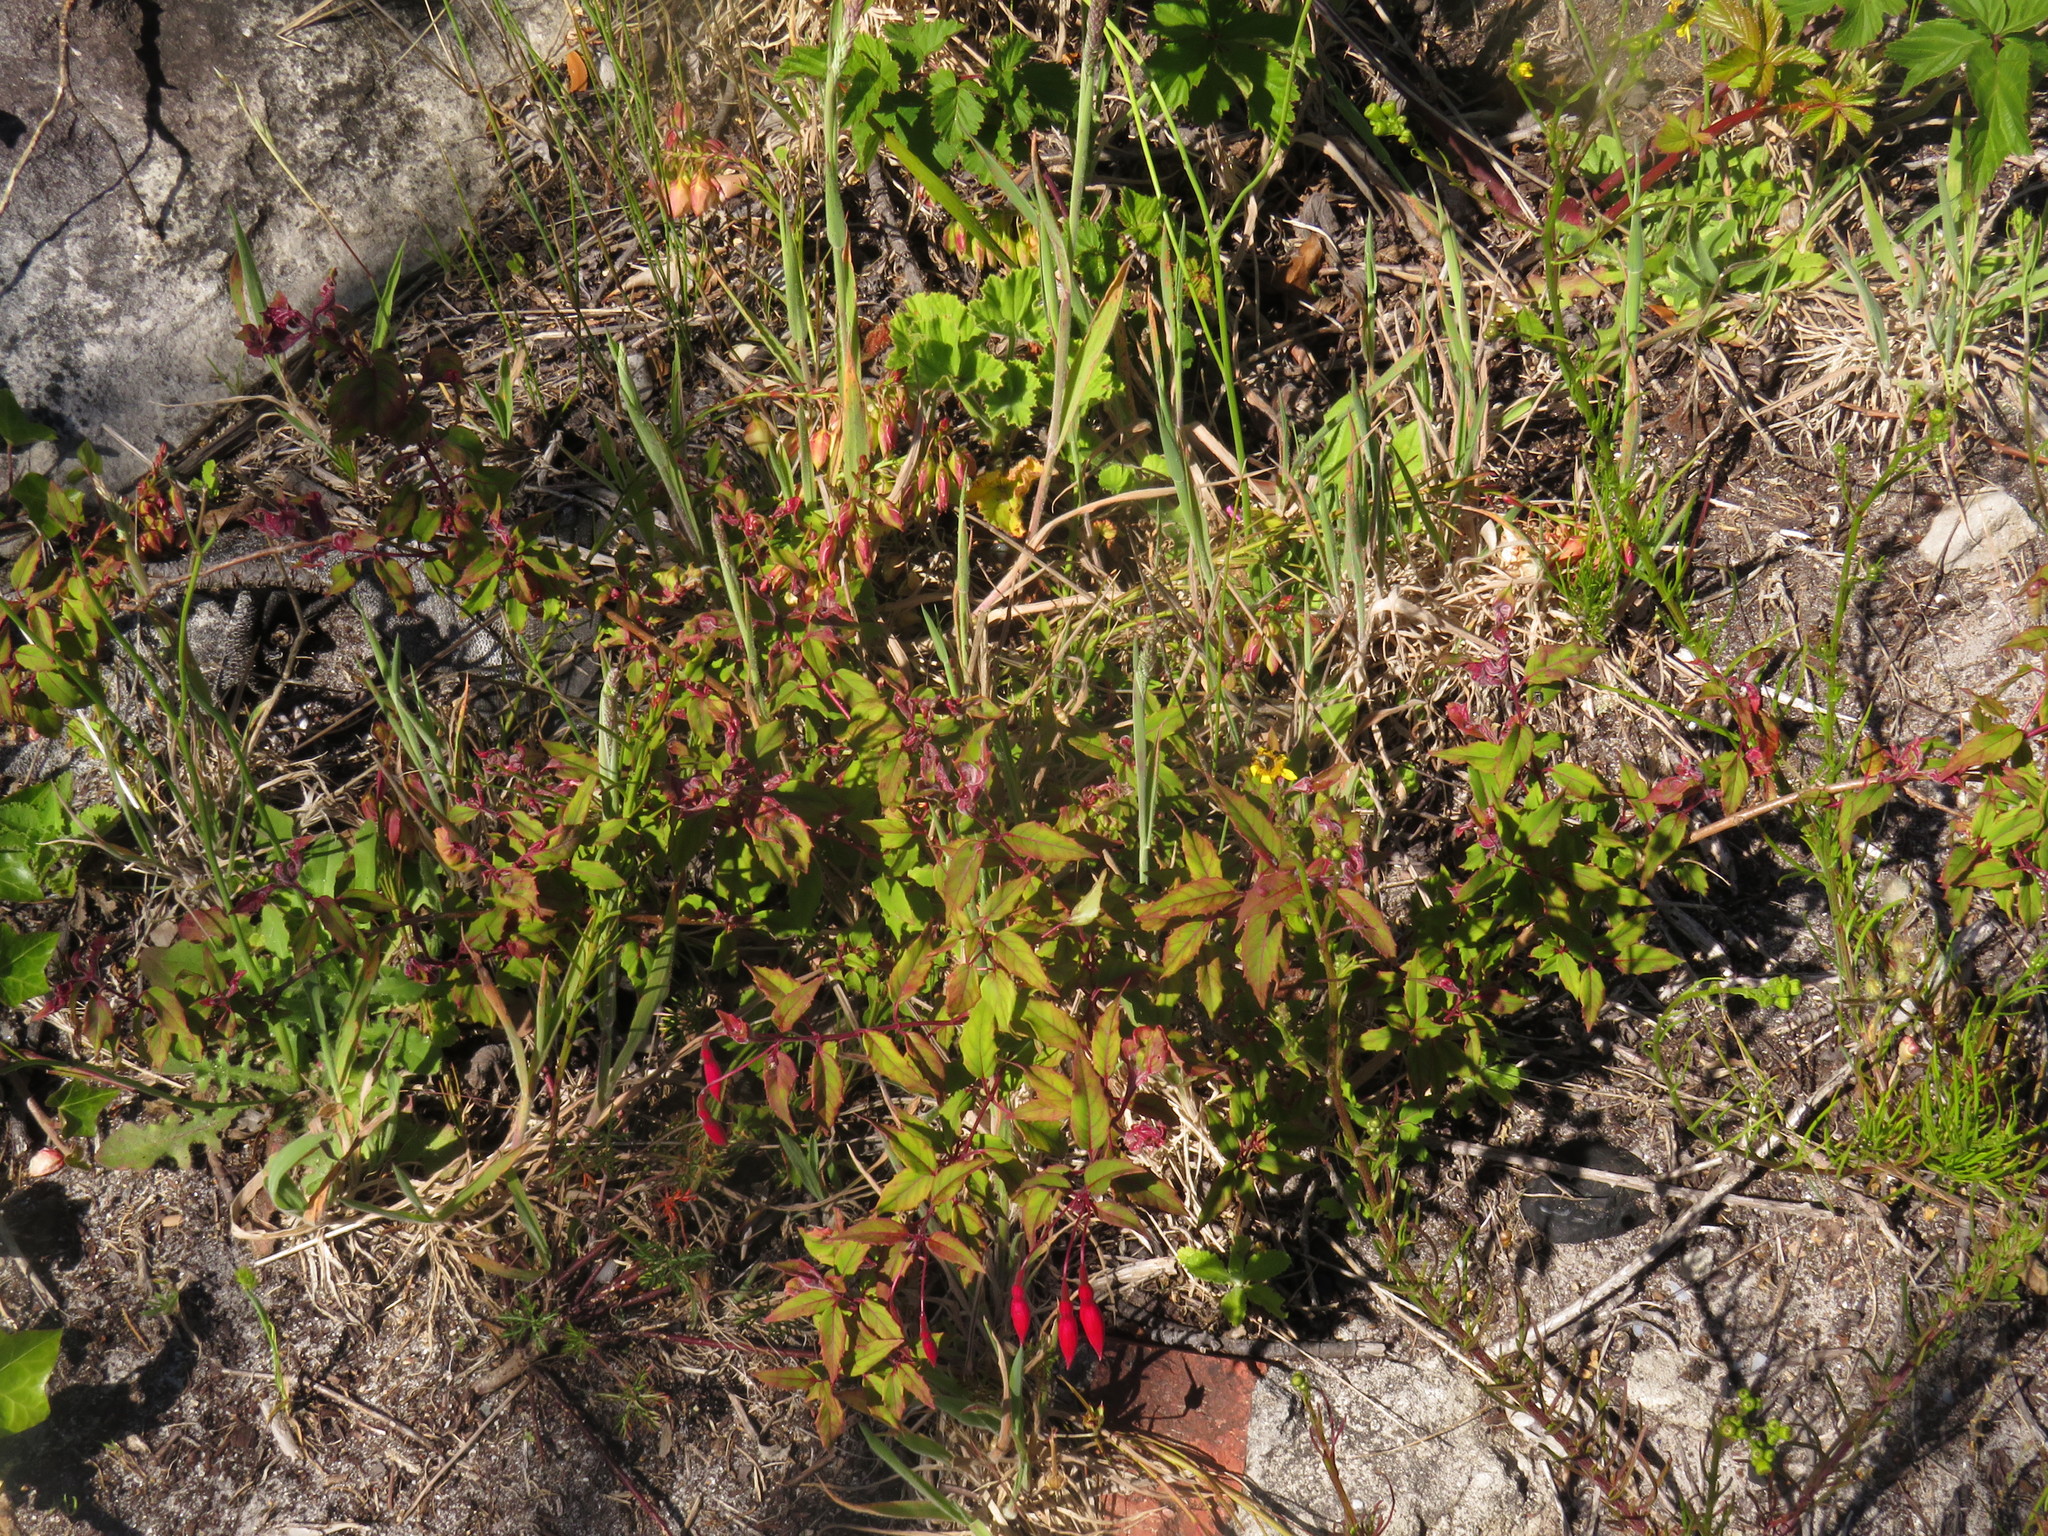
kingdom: Plantae
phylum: Tracheophyta
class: Magnoliopsida
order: Myrtales
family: Onagraceae
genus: Fuchsia
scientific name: Fuchsia magellanica
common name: Hardy fuchsia
